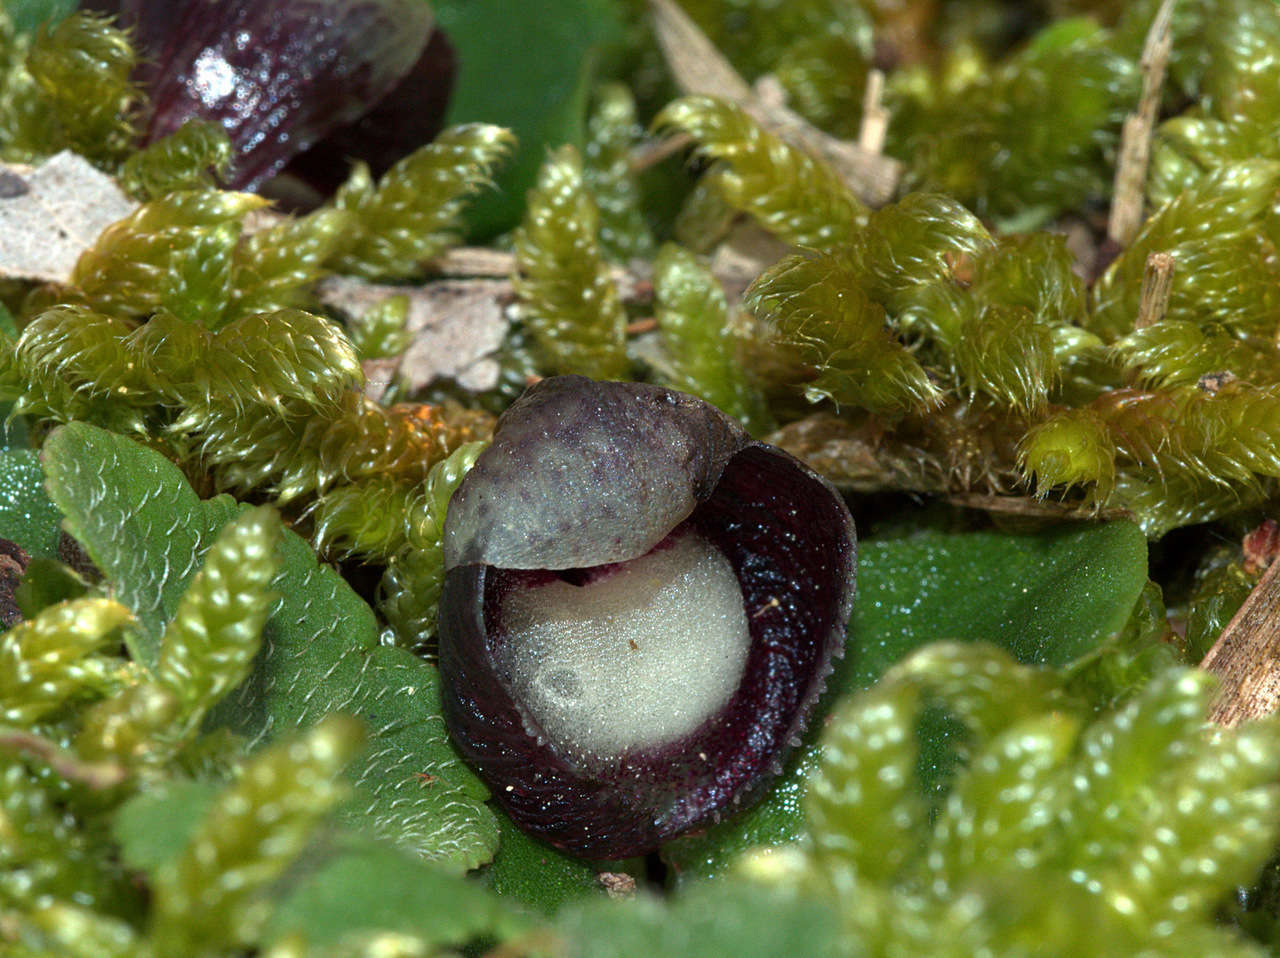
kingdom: Plantae
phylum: Tracheophyta
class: Liliopsida
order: Asparagales
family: Orchidaceae
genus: Corybas
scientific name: Corybas incurvus
